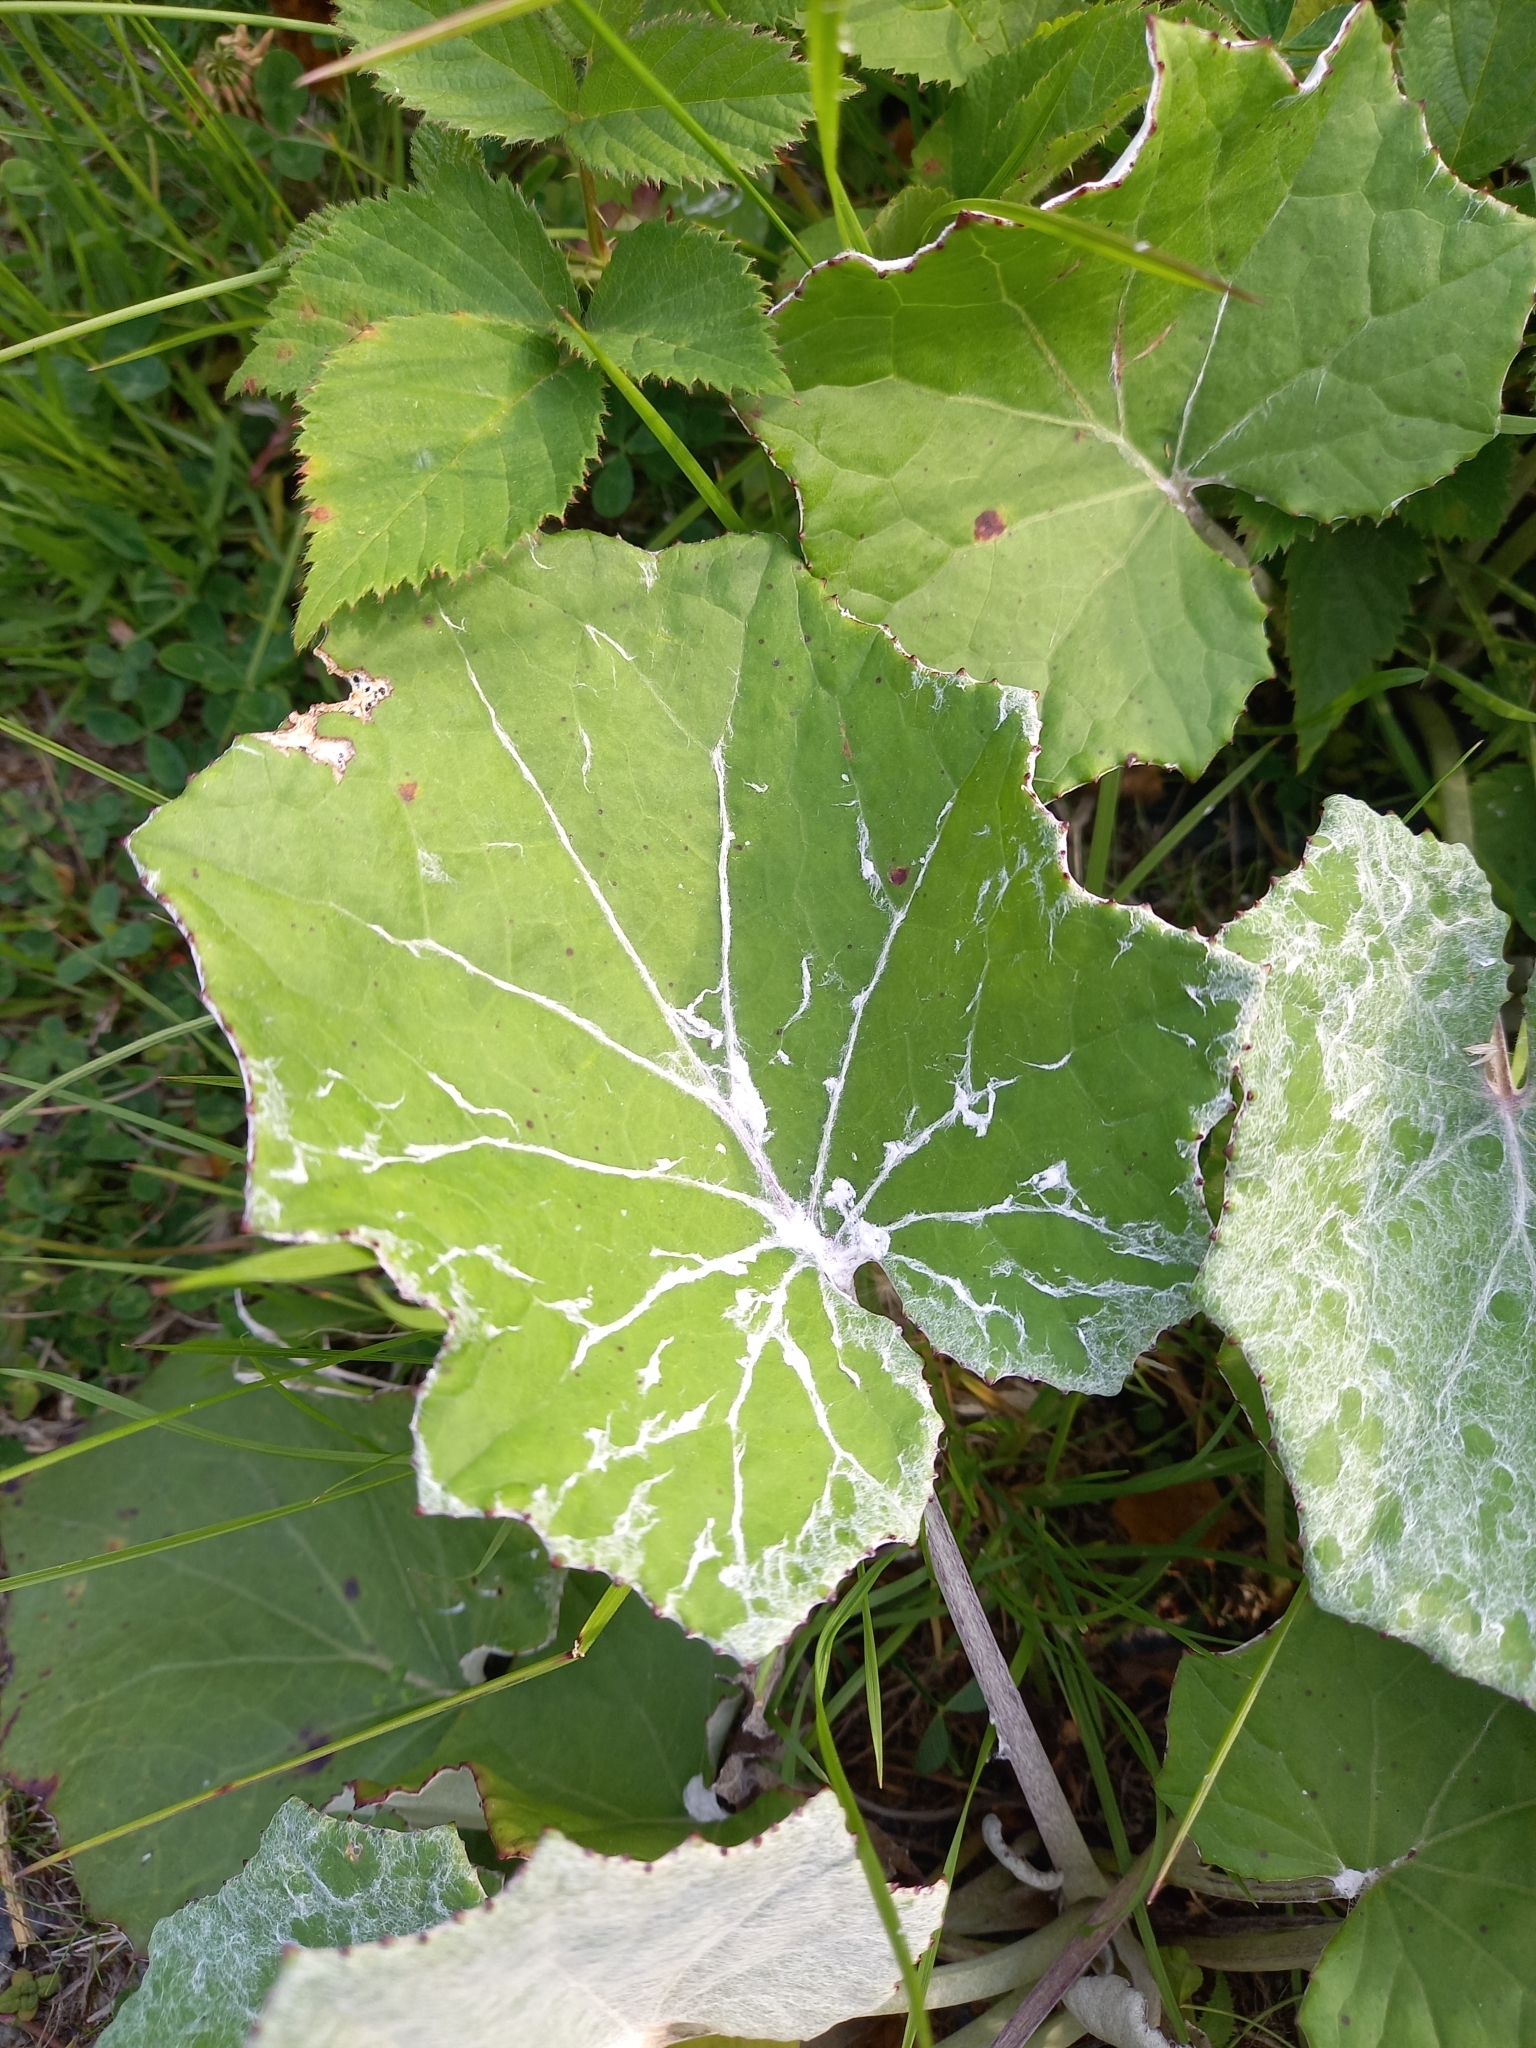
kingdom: Plantae
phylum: Tracheophyta
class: Magnoliopsida
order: Asterales
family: Asteraceae
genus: Tussilago
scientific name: Tussilago farfara
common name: Coltsfoot
